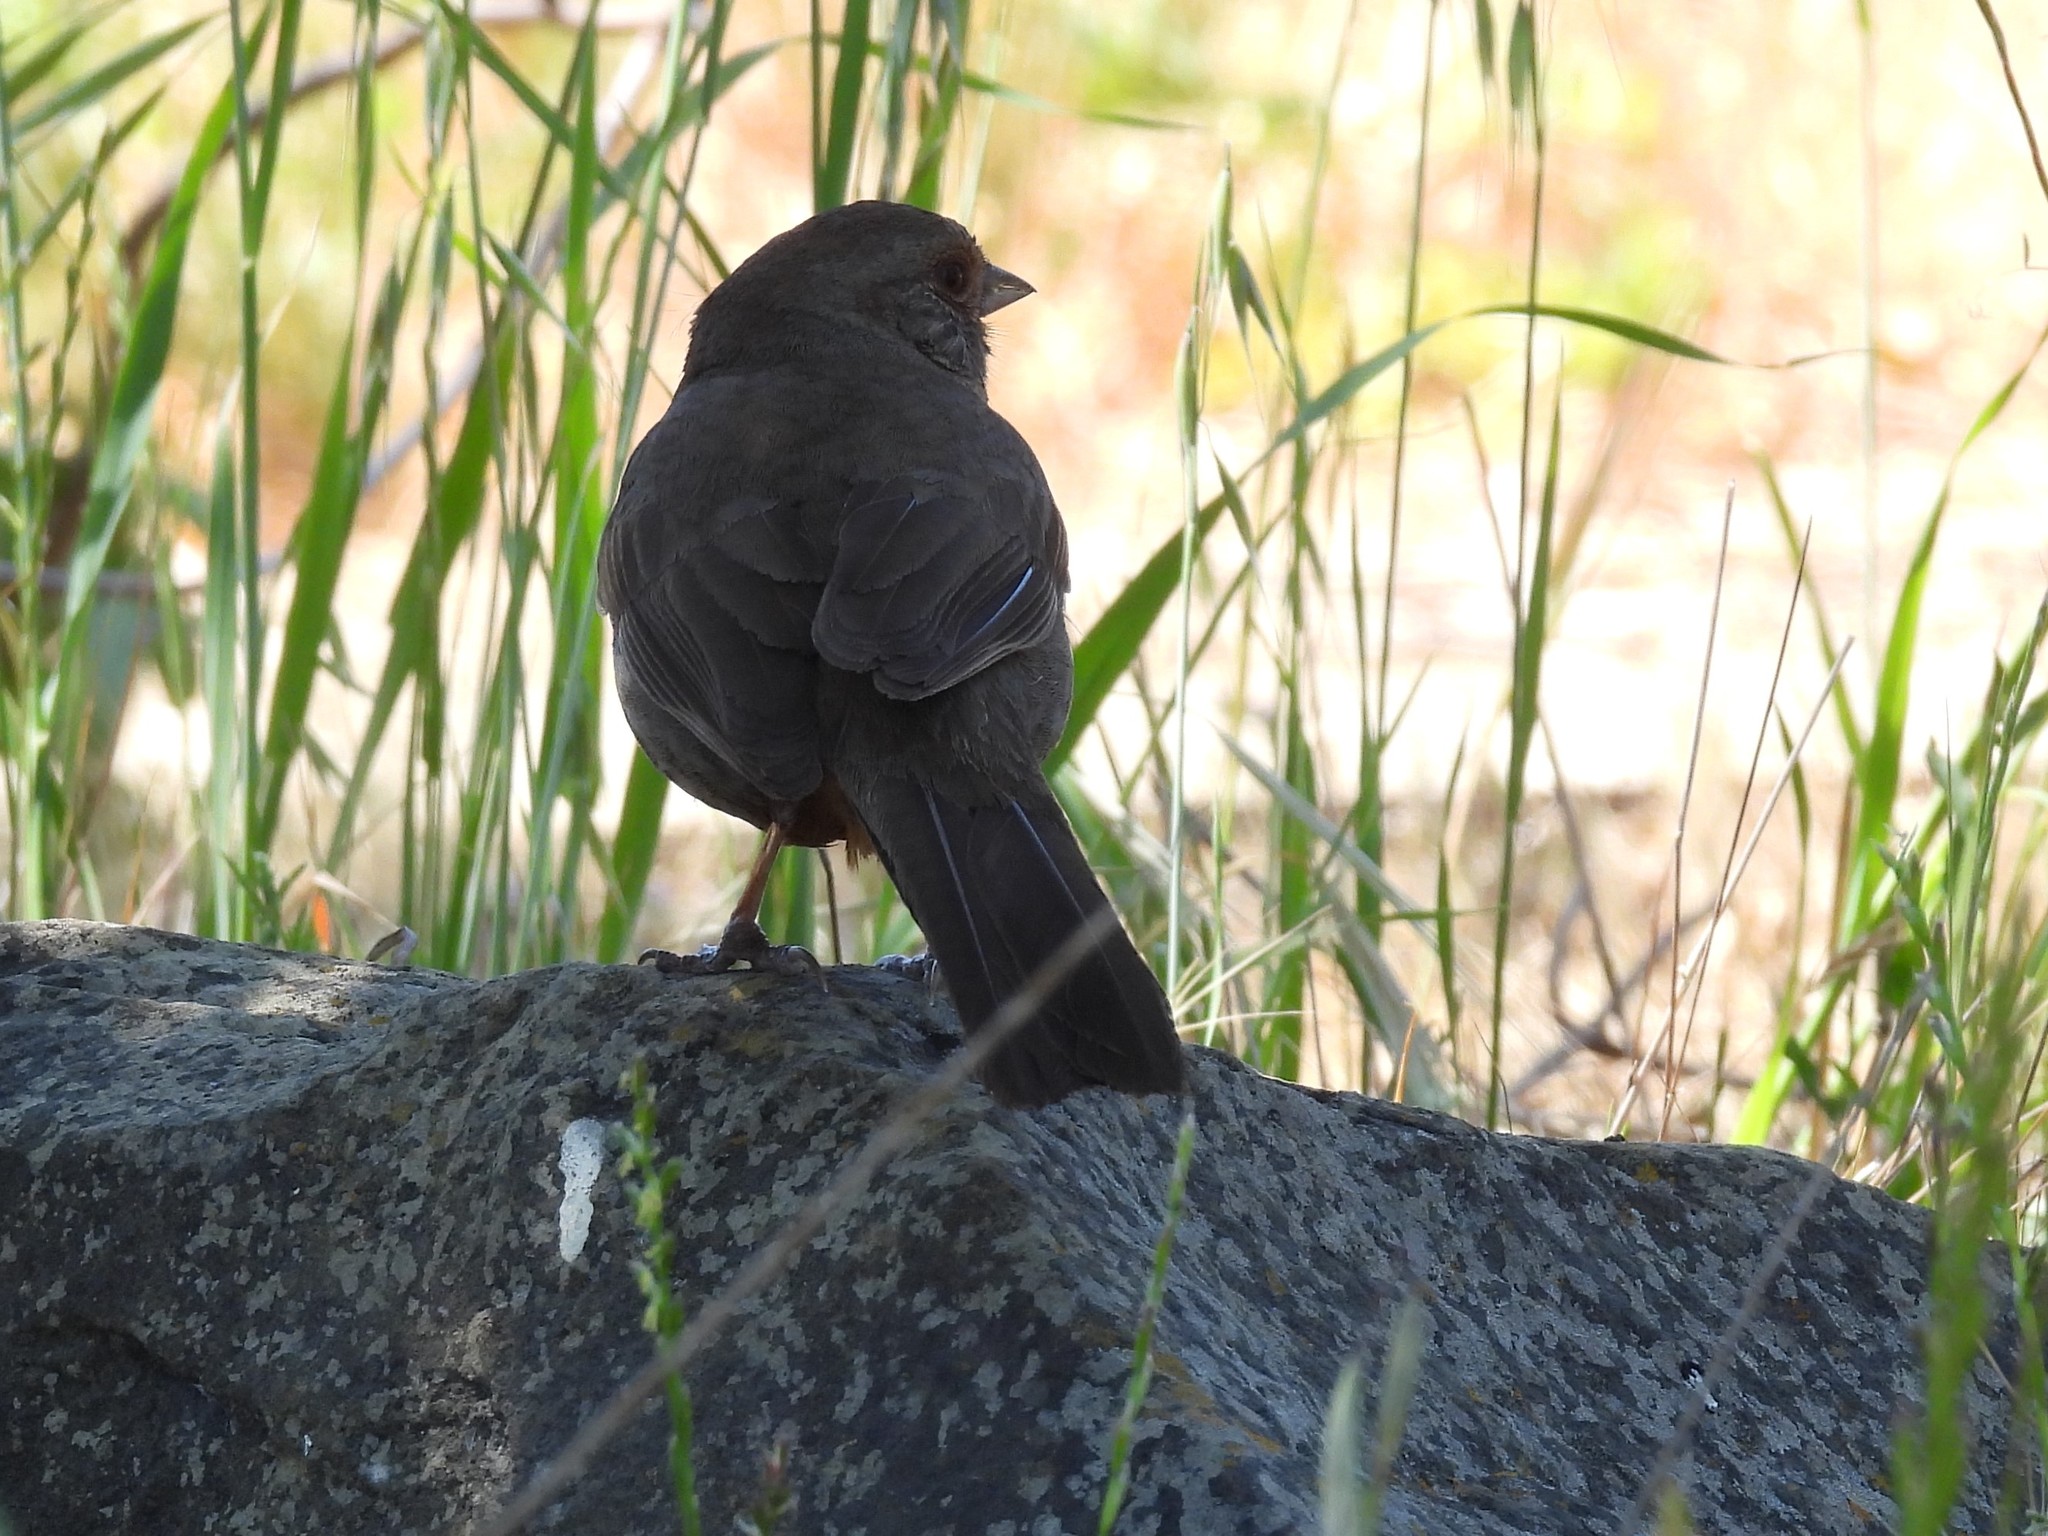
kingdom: Animalia
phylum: Chordata
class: Aves
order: Passeriformes
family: Passerellidae
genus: Melozone
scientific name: Melozone crissalis
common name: California towhee
